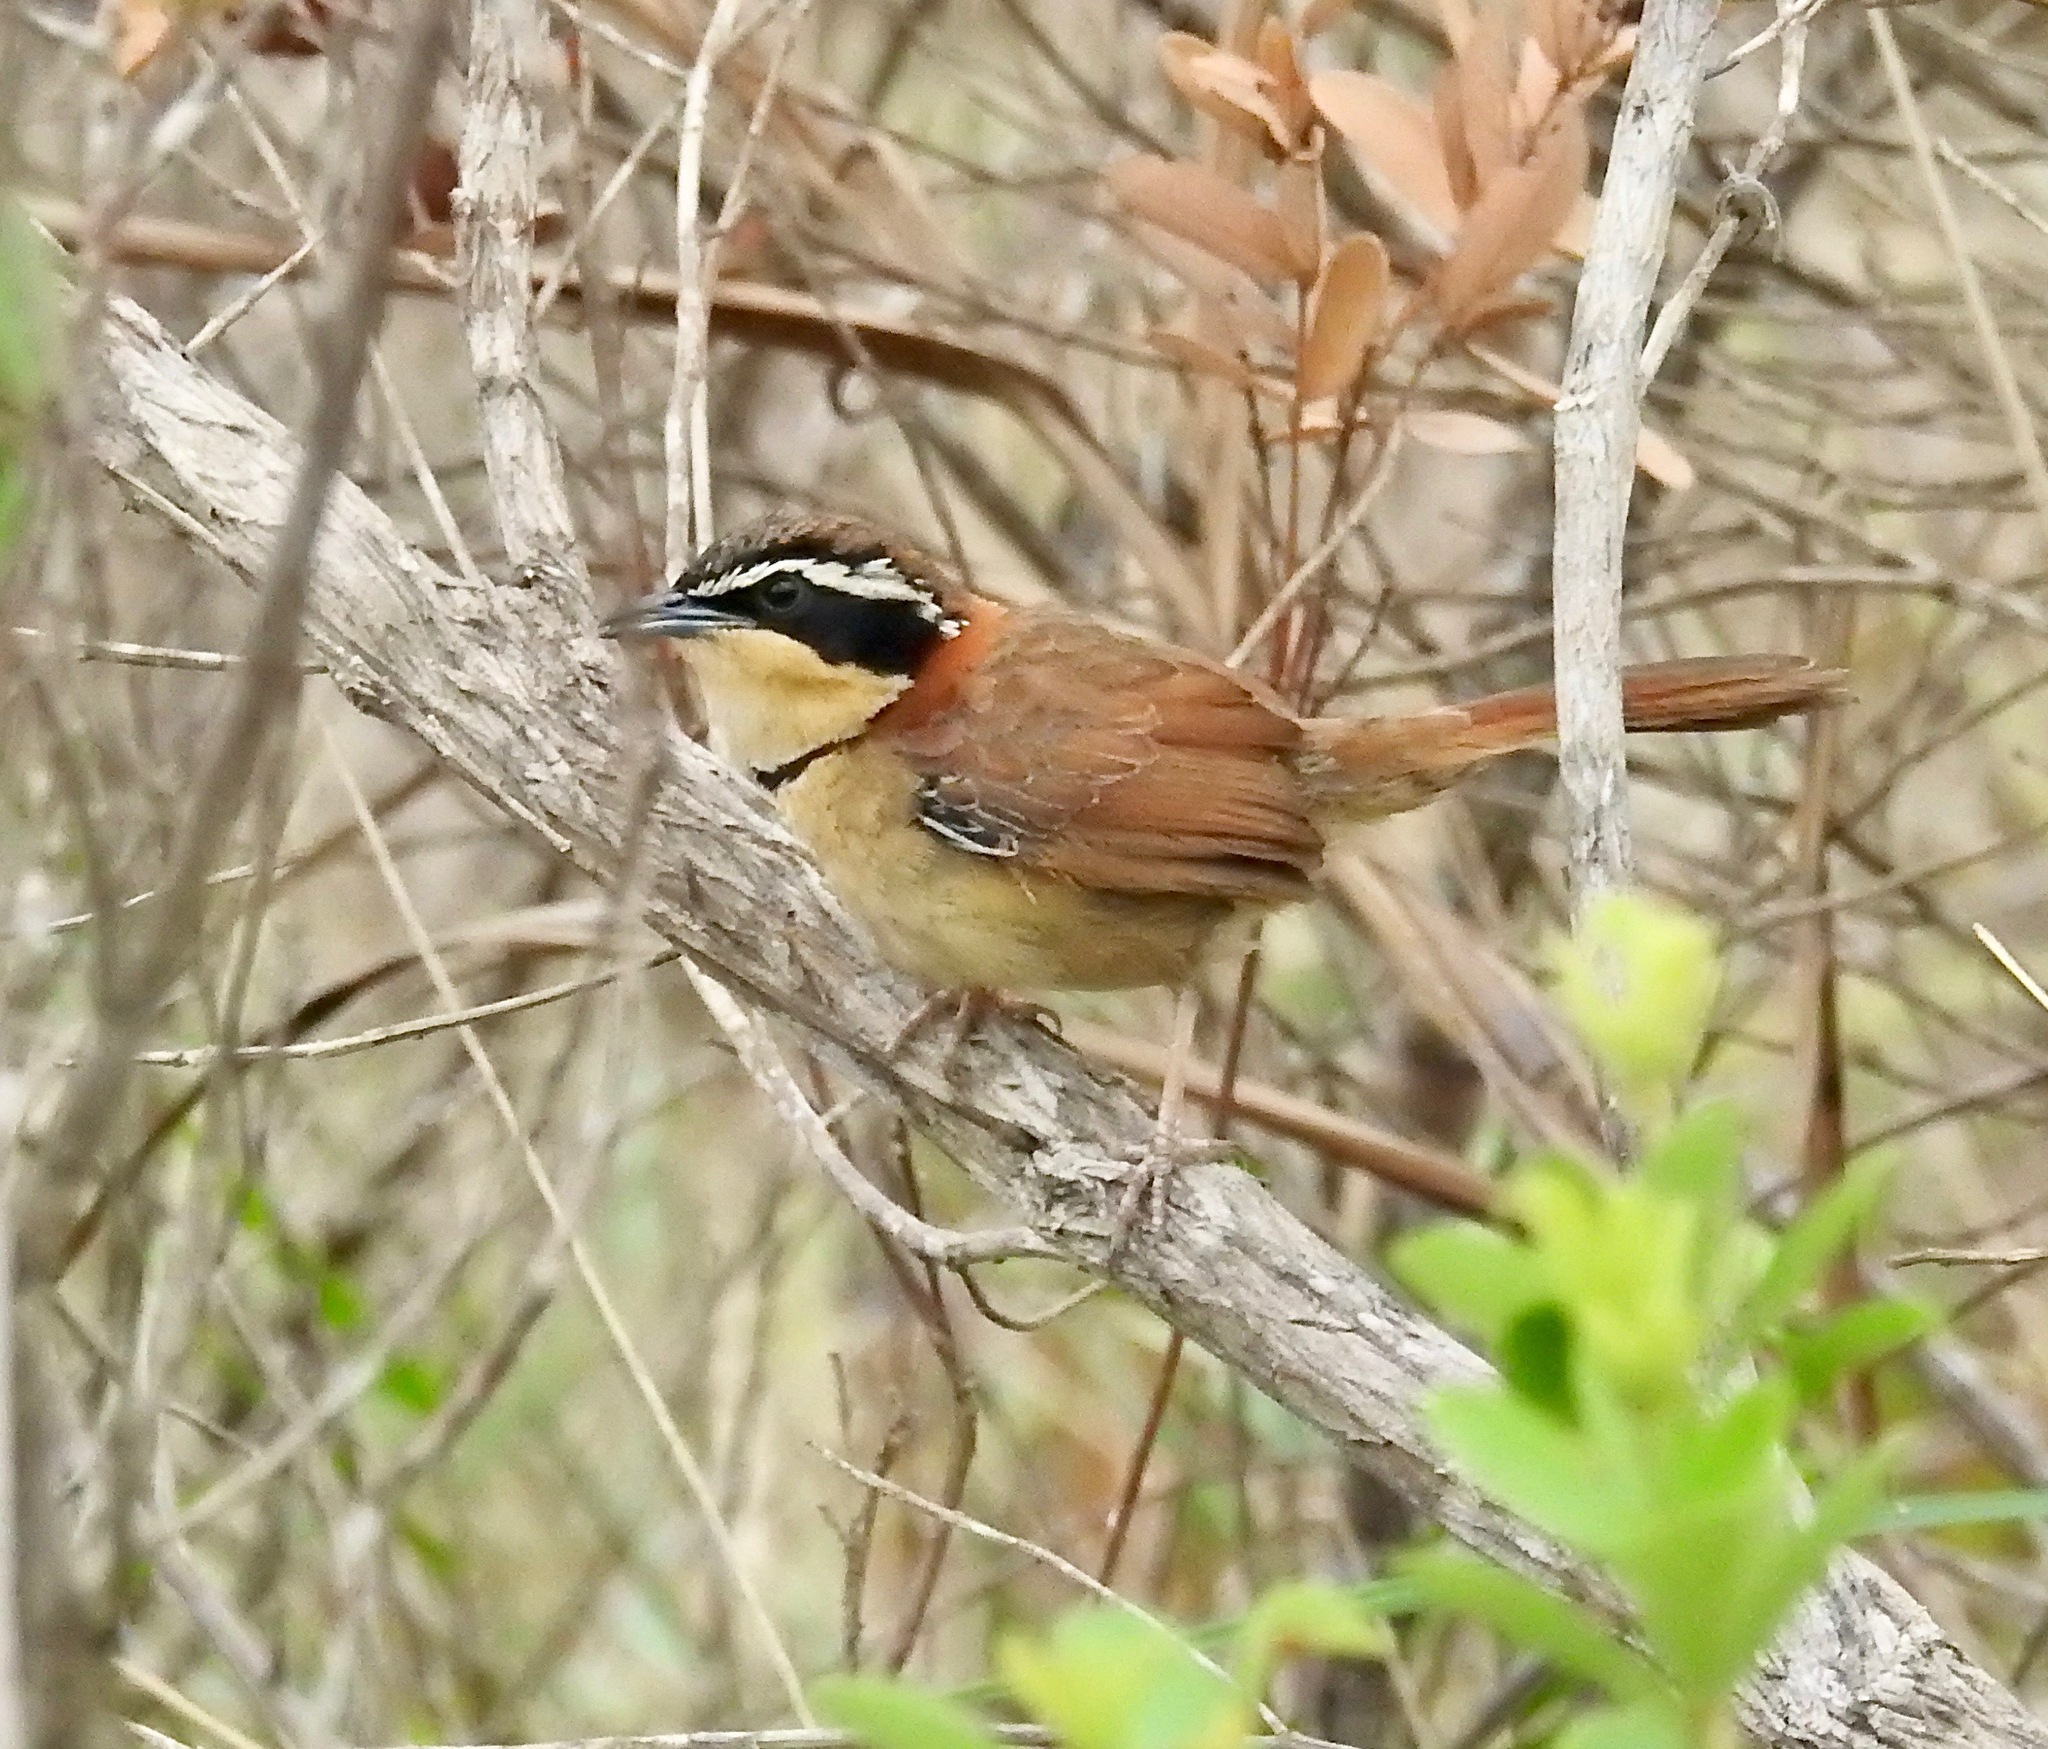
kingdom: Animalia
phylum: Chordata
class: Aves
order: Passeriformes
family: Melanopareiidae
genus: Melanopareia
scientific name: Melanopareia torquata
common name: Collared crescentchest
